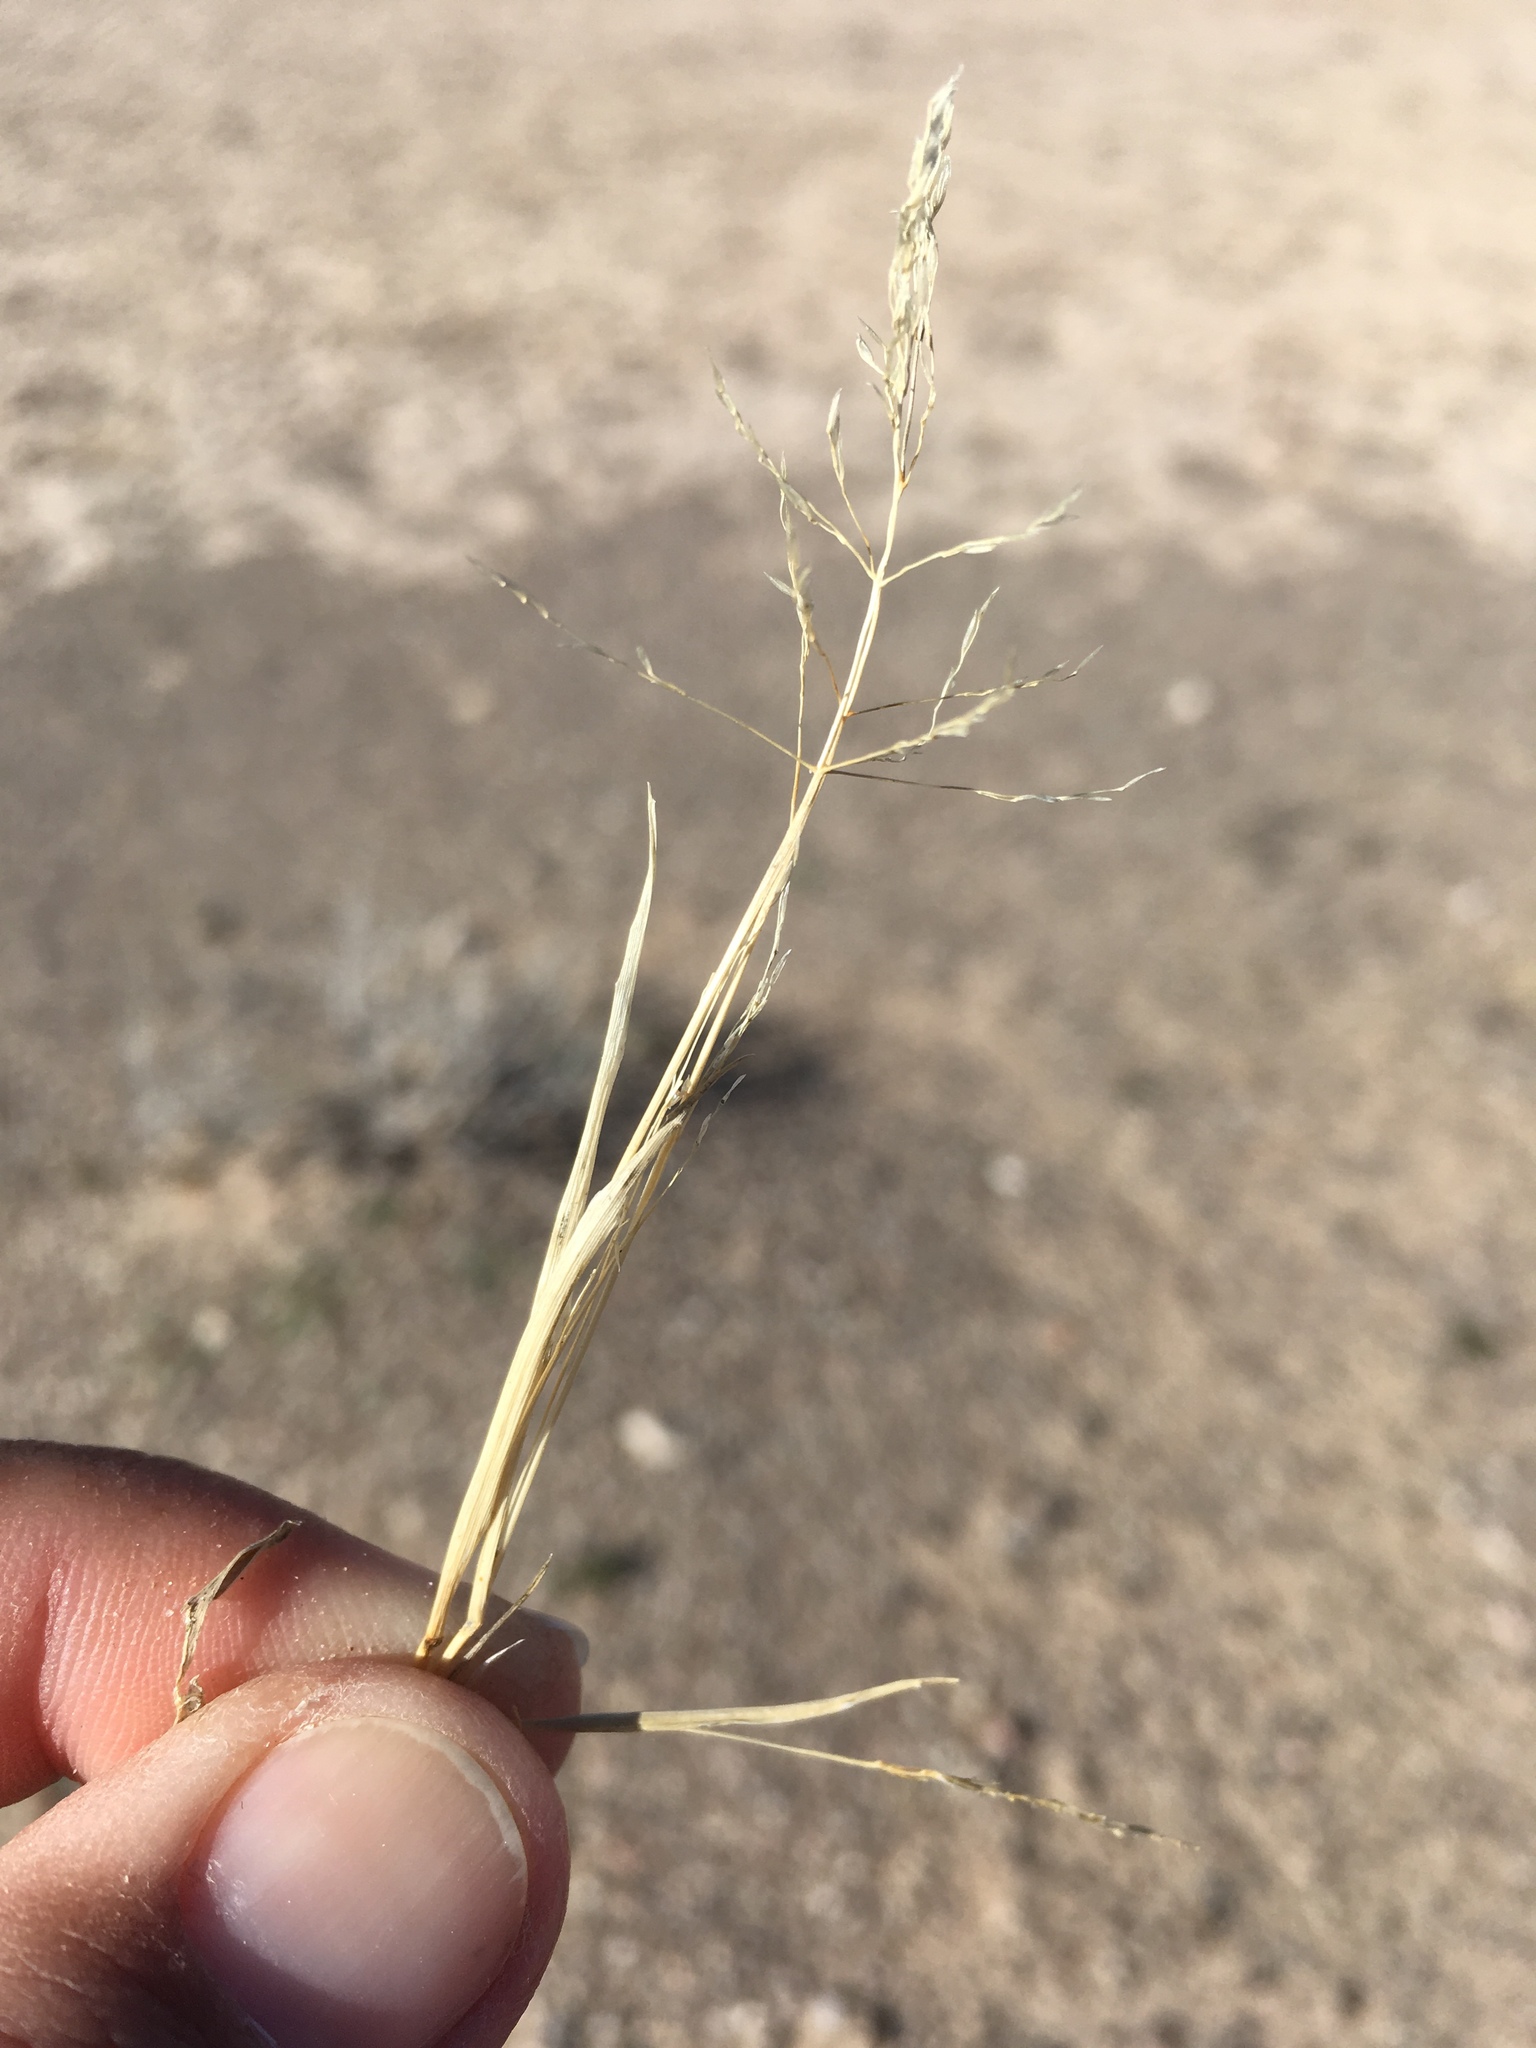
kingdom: Plantae
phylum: Tracheophyta
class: Liliopsida
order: Poales
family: Poaceae
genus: Sporobolus
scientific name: Sporobolus pyramidatus
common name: Whorled dropseed
